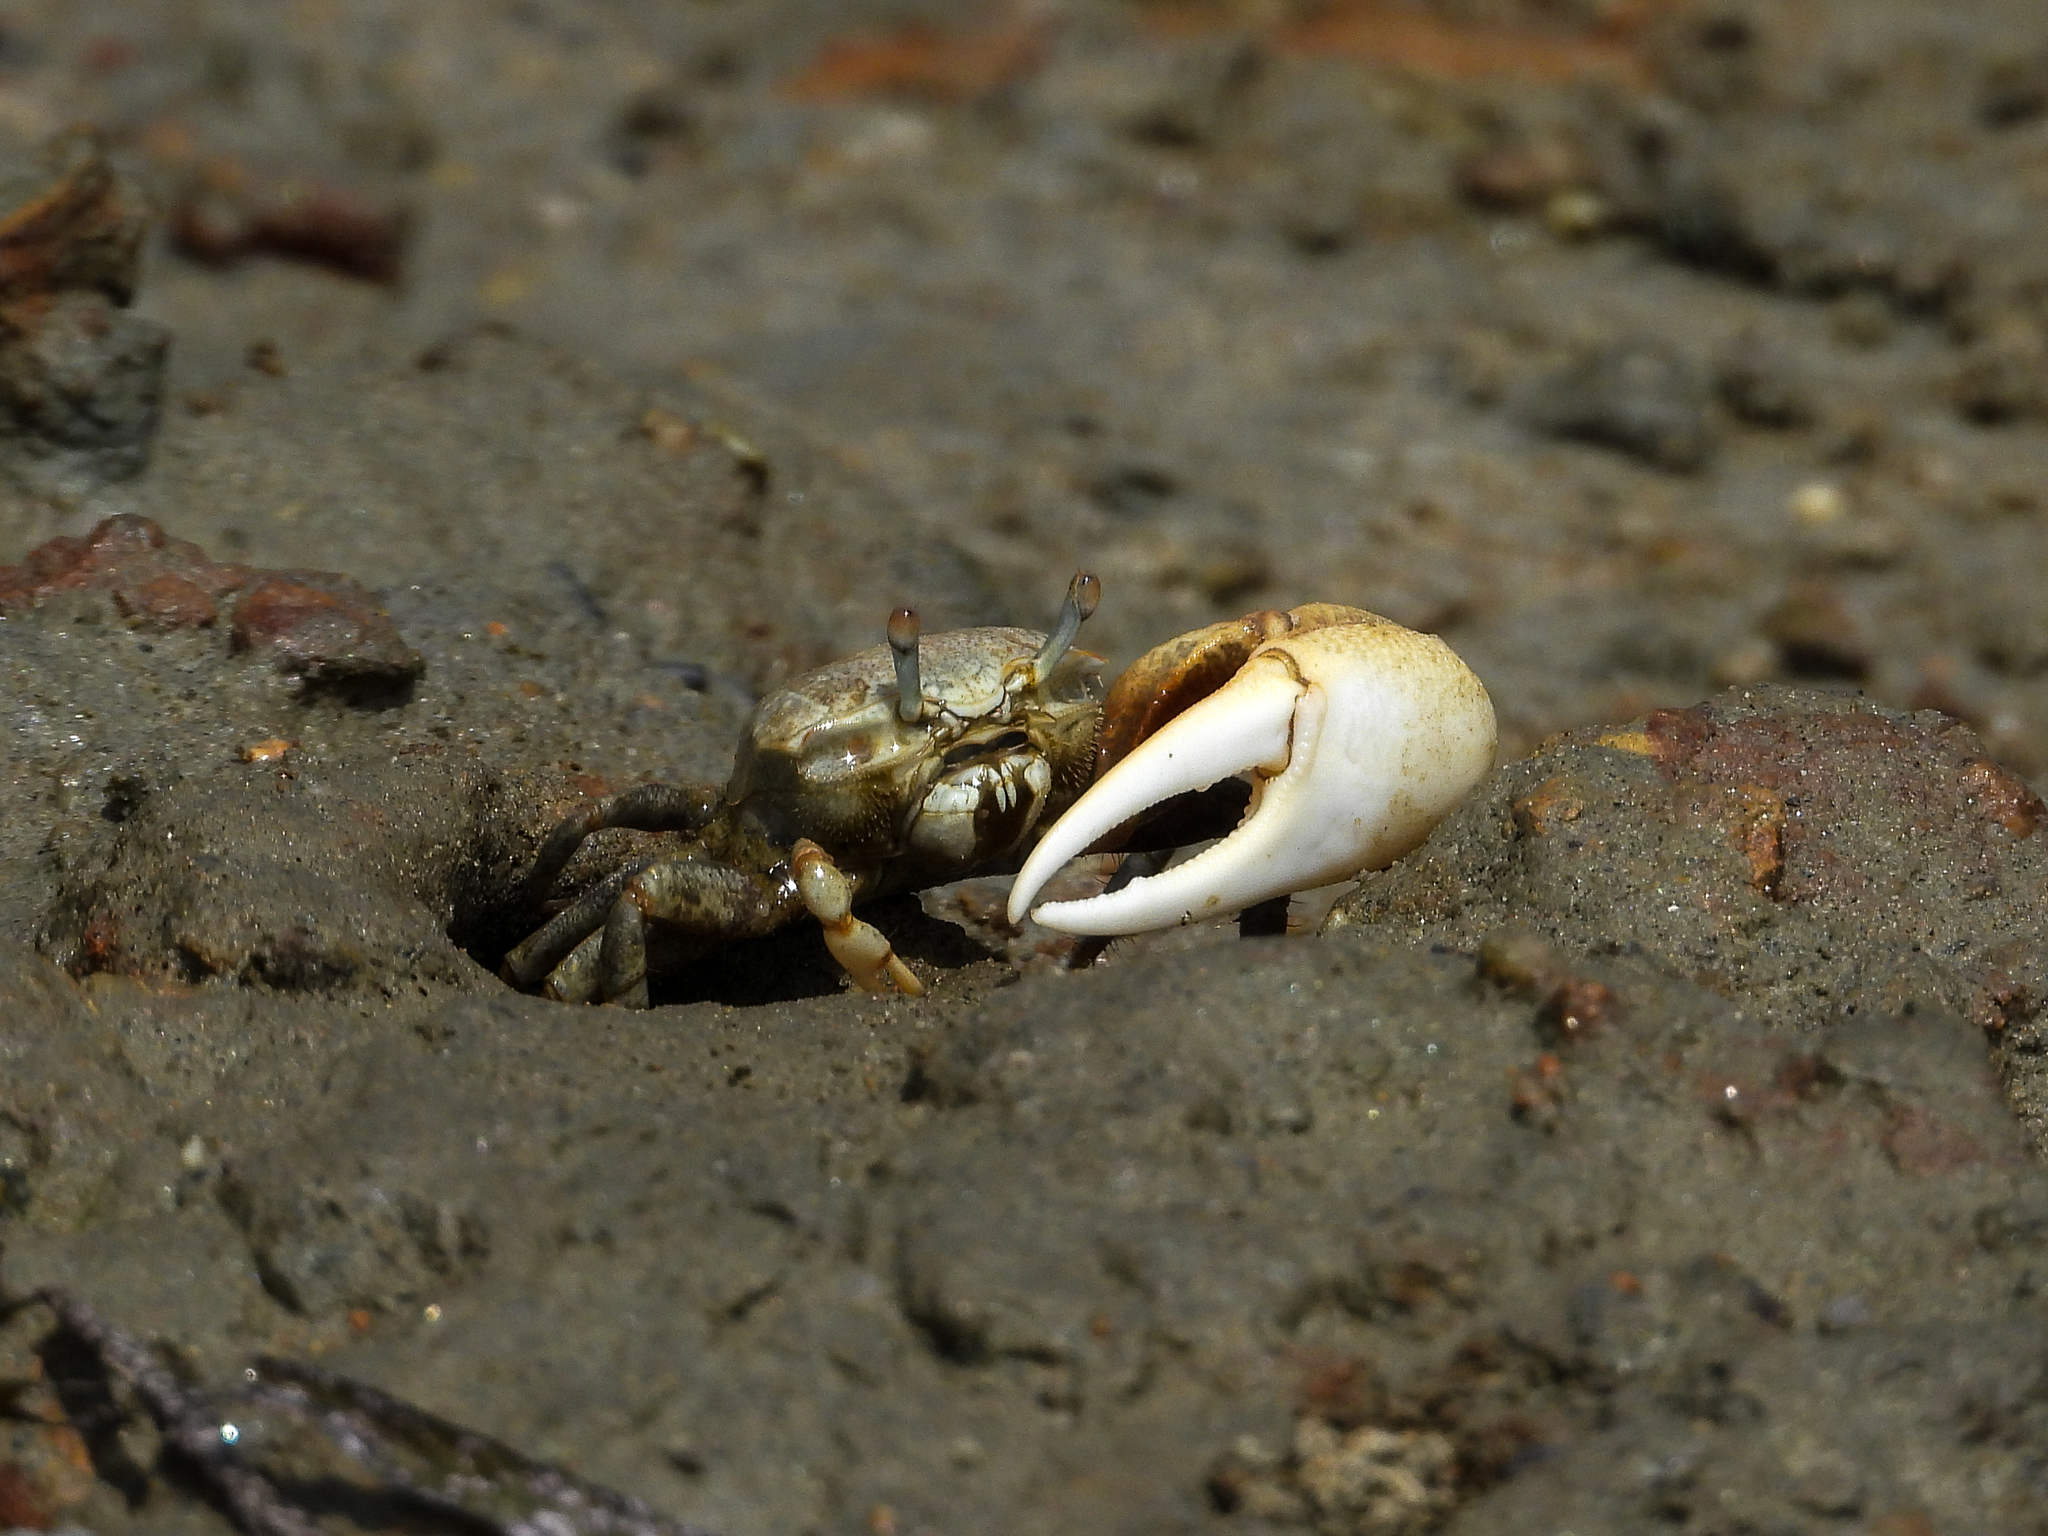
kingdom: Animalia
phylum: Arthropoda
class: Malacostraca
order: Decapoda
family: Ocypodidae
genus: Leptuca
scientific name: Leptuca crenulata
